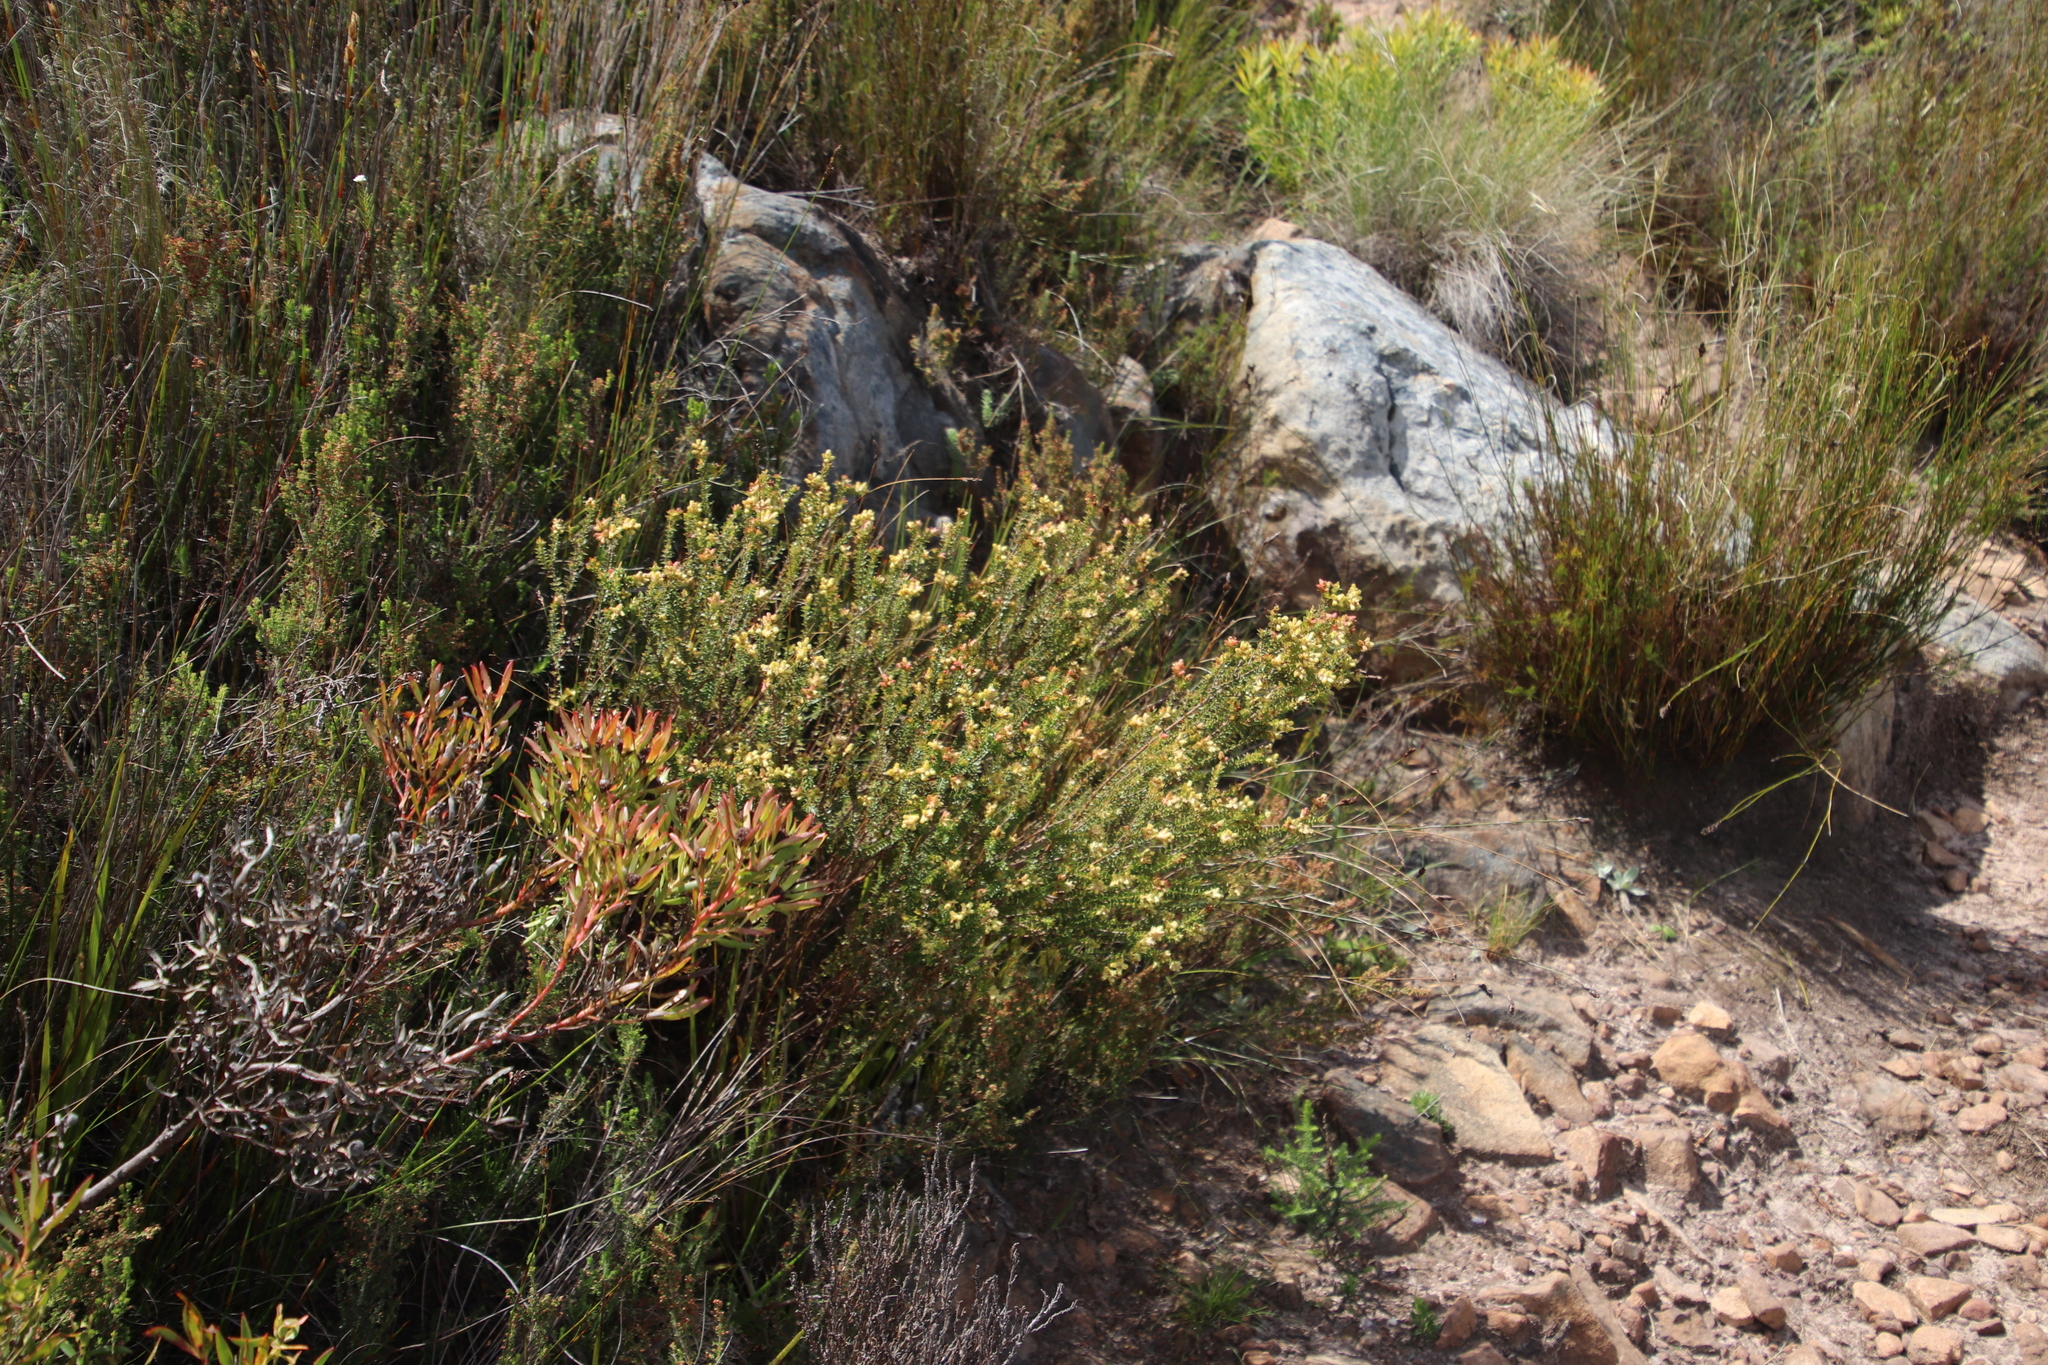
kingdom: Plantae
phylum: Tracheophyta
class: Magnoliopsida
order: Myrtales
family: Penaeaceae
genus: Penaea
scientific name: Penaea mucronata
